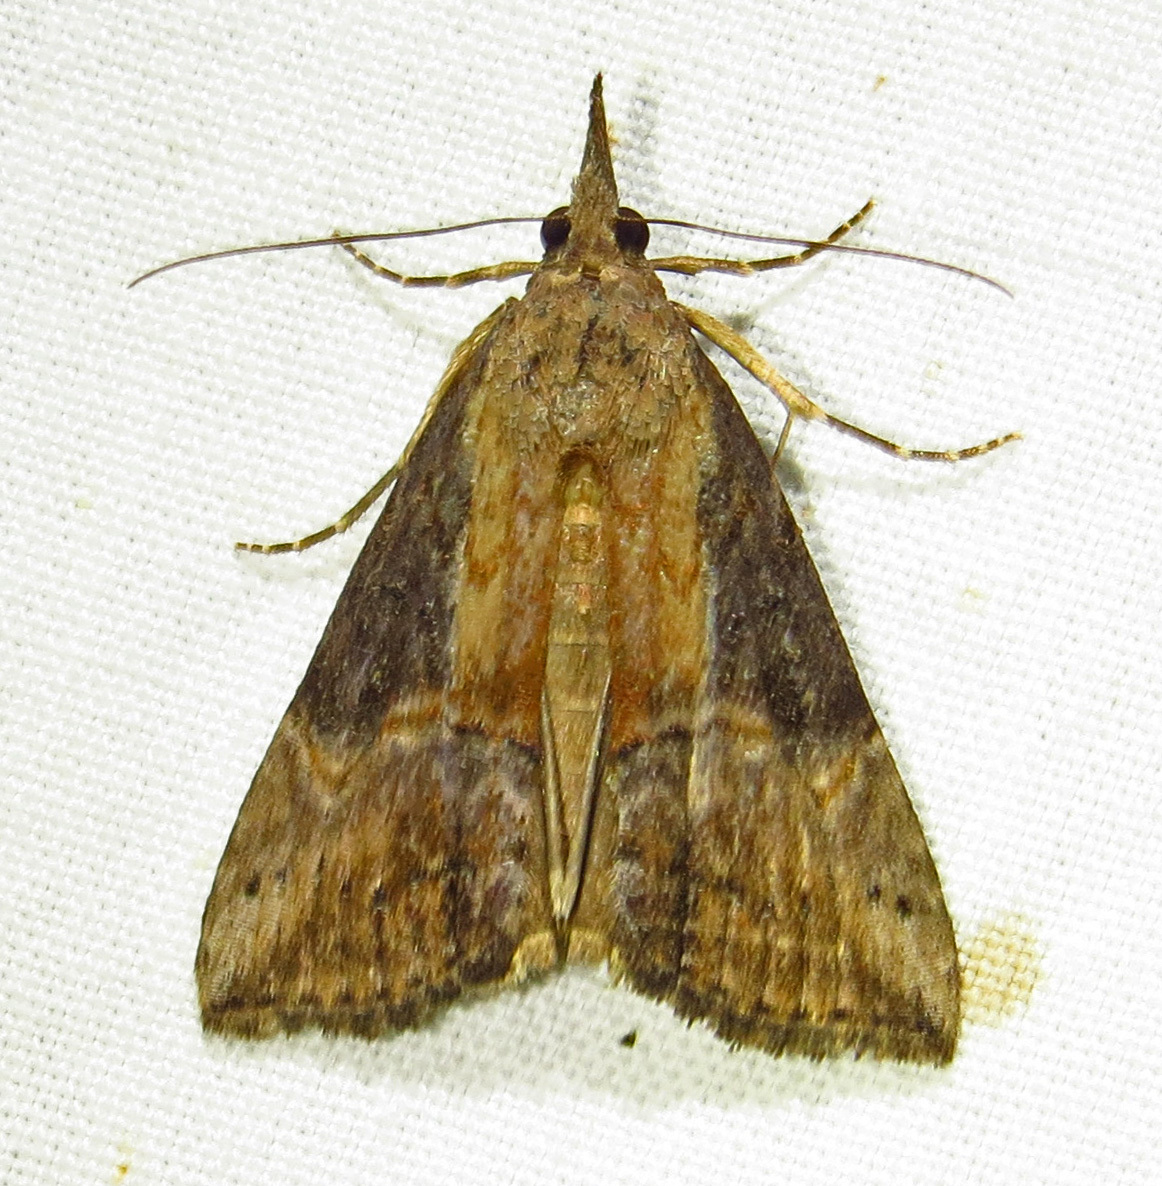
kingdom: Animalia
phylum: Arthropoda
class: Insecta
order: Lepidoptera
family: Erebidae
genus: Hypena
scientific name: Hypena scabra
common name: Green cloverworm
